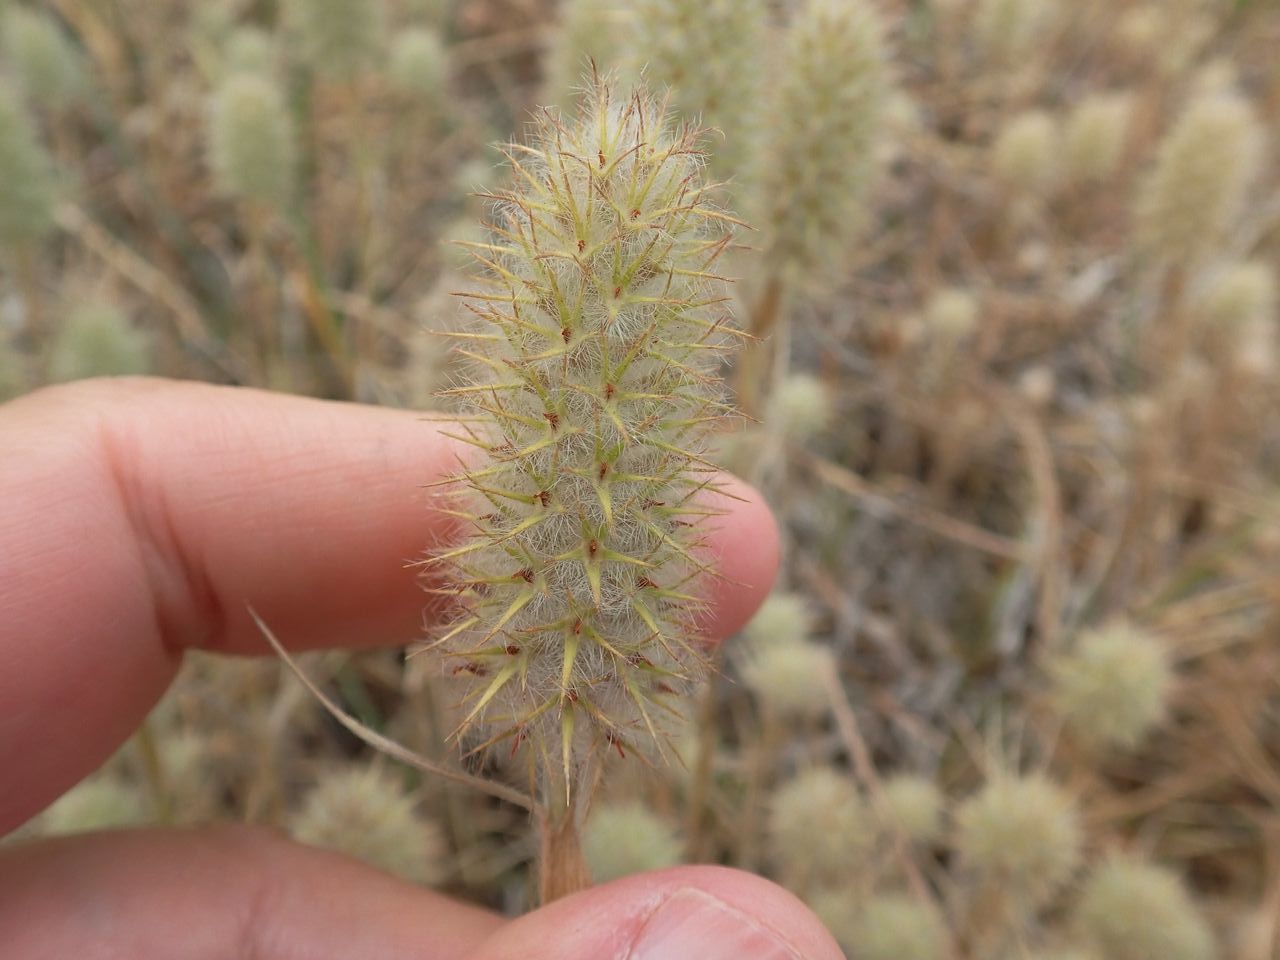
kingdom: Plantae
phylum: Tracheophyta
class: Magnoliopsida
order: Fabales
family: Fabaceae
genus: Trifolium
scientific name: Trifolium angustifolium
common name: Narrow clover
